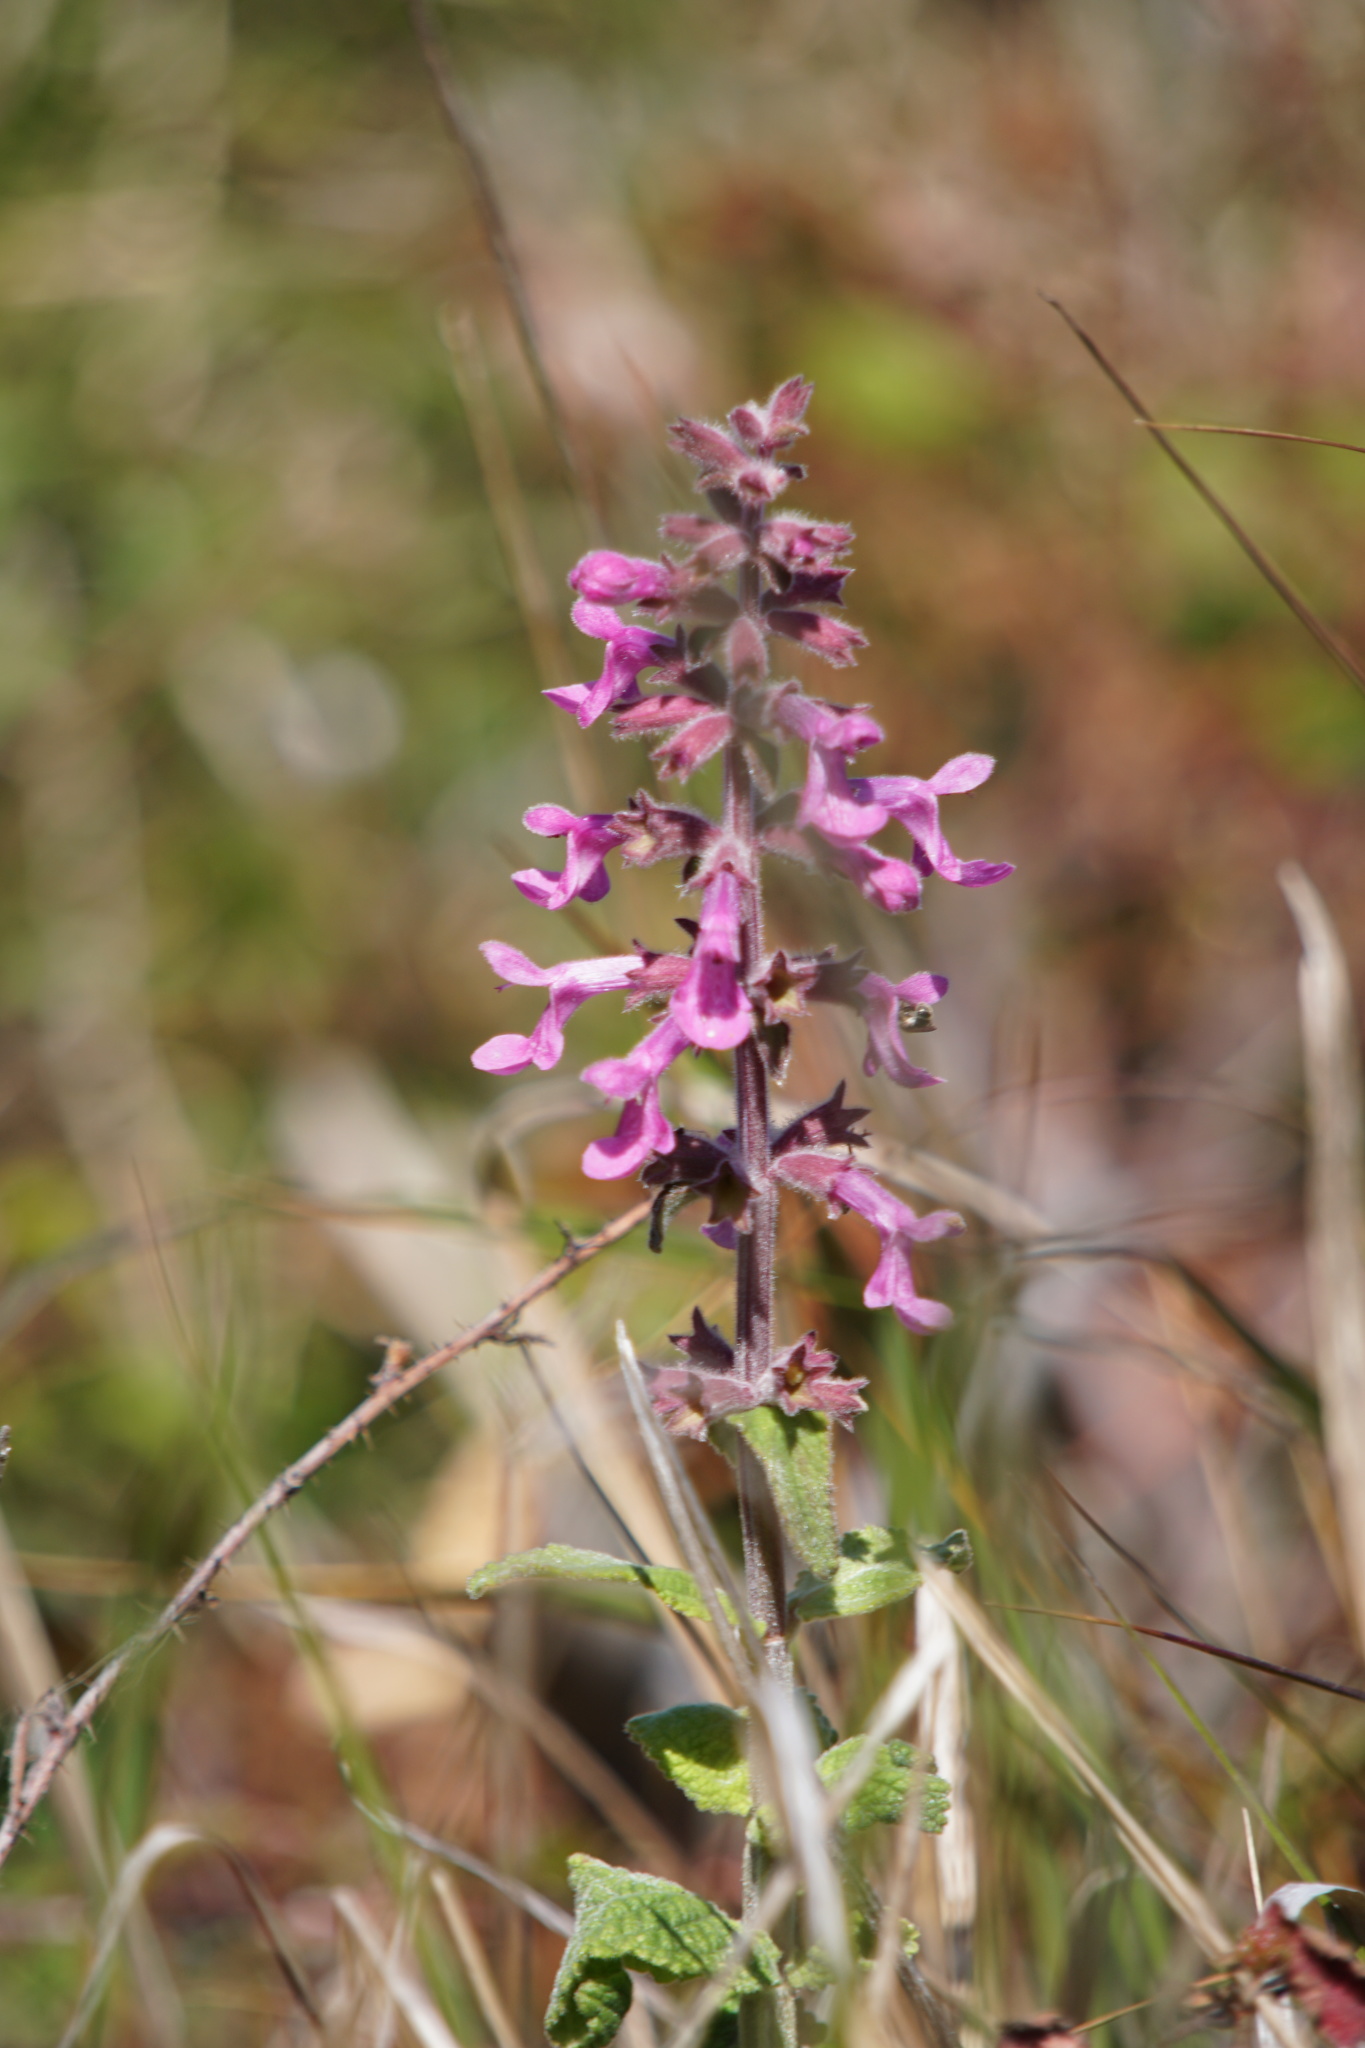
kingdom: Plantae
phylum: Tracheophyta
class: Magnoliopsida
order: Lamiales
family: Lamiaceae
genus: Stachys
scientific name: Stachys chamissonis
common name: Coastal hedge-nettle
